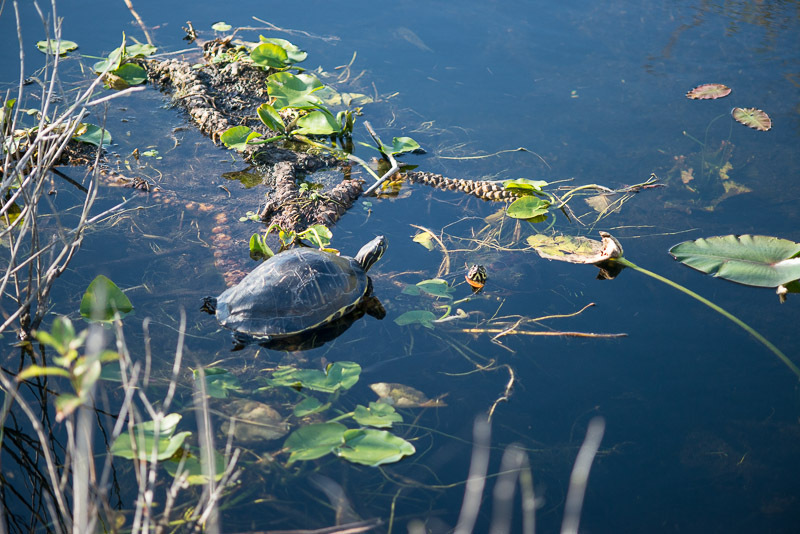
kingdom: Animalia
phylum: Chordata
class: Testudines
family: Emydidae
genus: Pseudemys
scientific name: Pseudemys peninsularis
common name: Peninsula cooter
